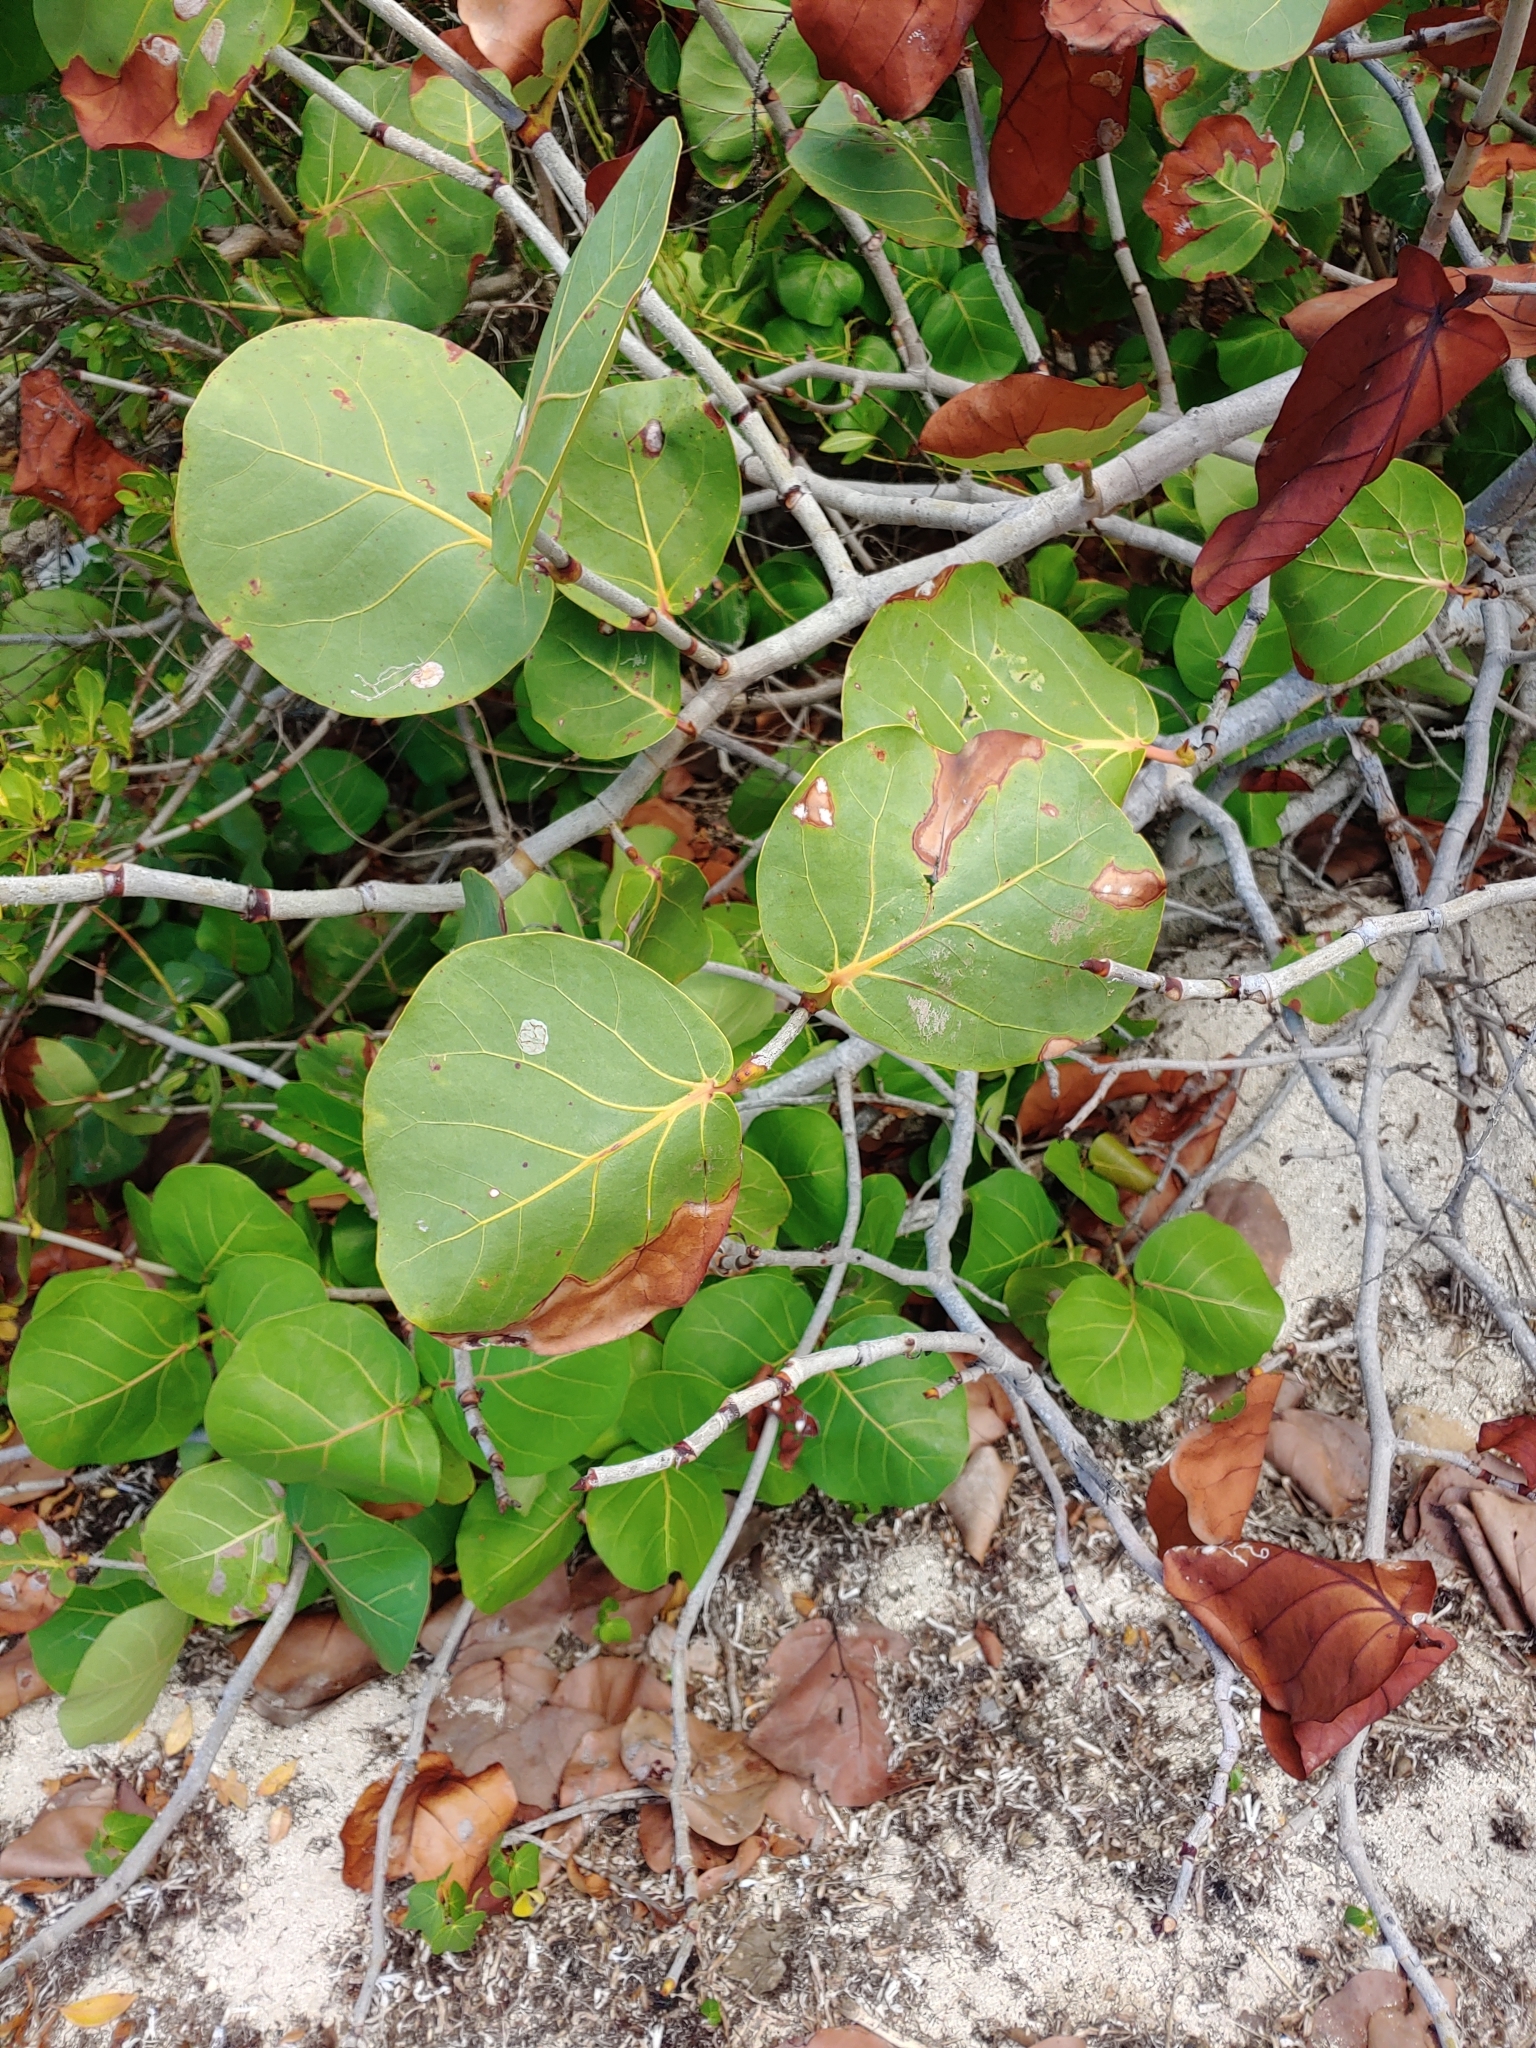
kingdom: Plantae
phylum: Tracheophyta
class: Magnoliopsida
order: Caryophyllales
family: Polygonaceae
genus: Coccoloba
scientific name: Coccoloba uvifera
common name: Seagrape
